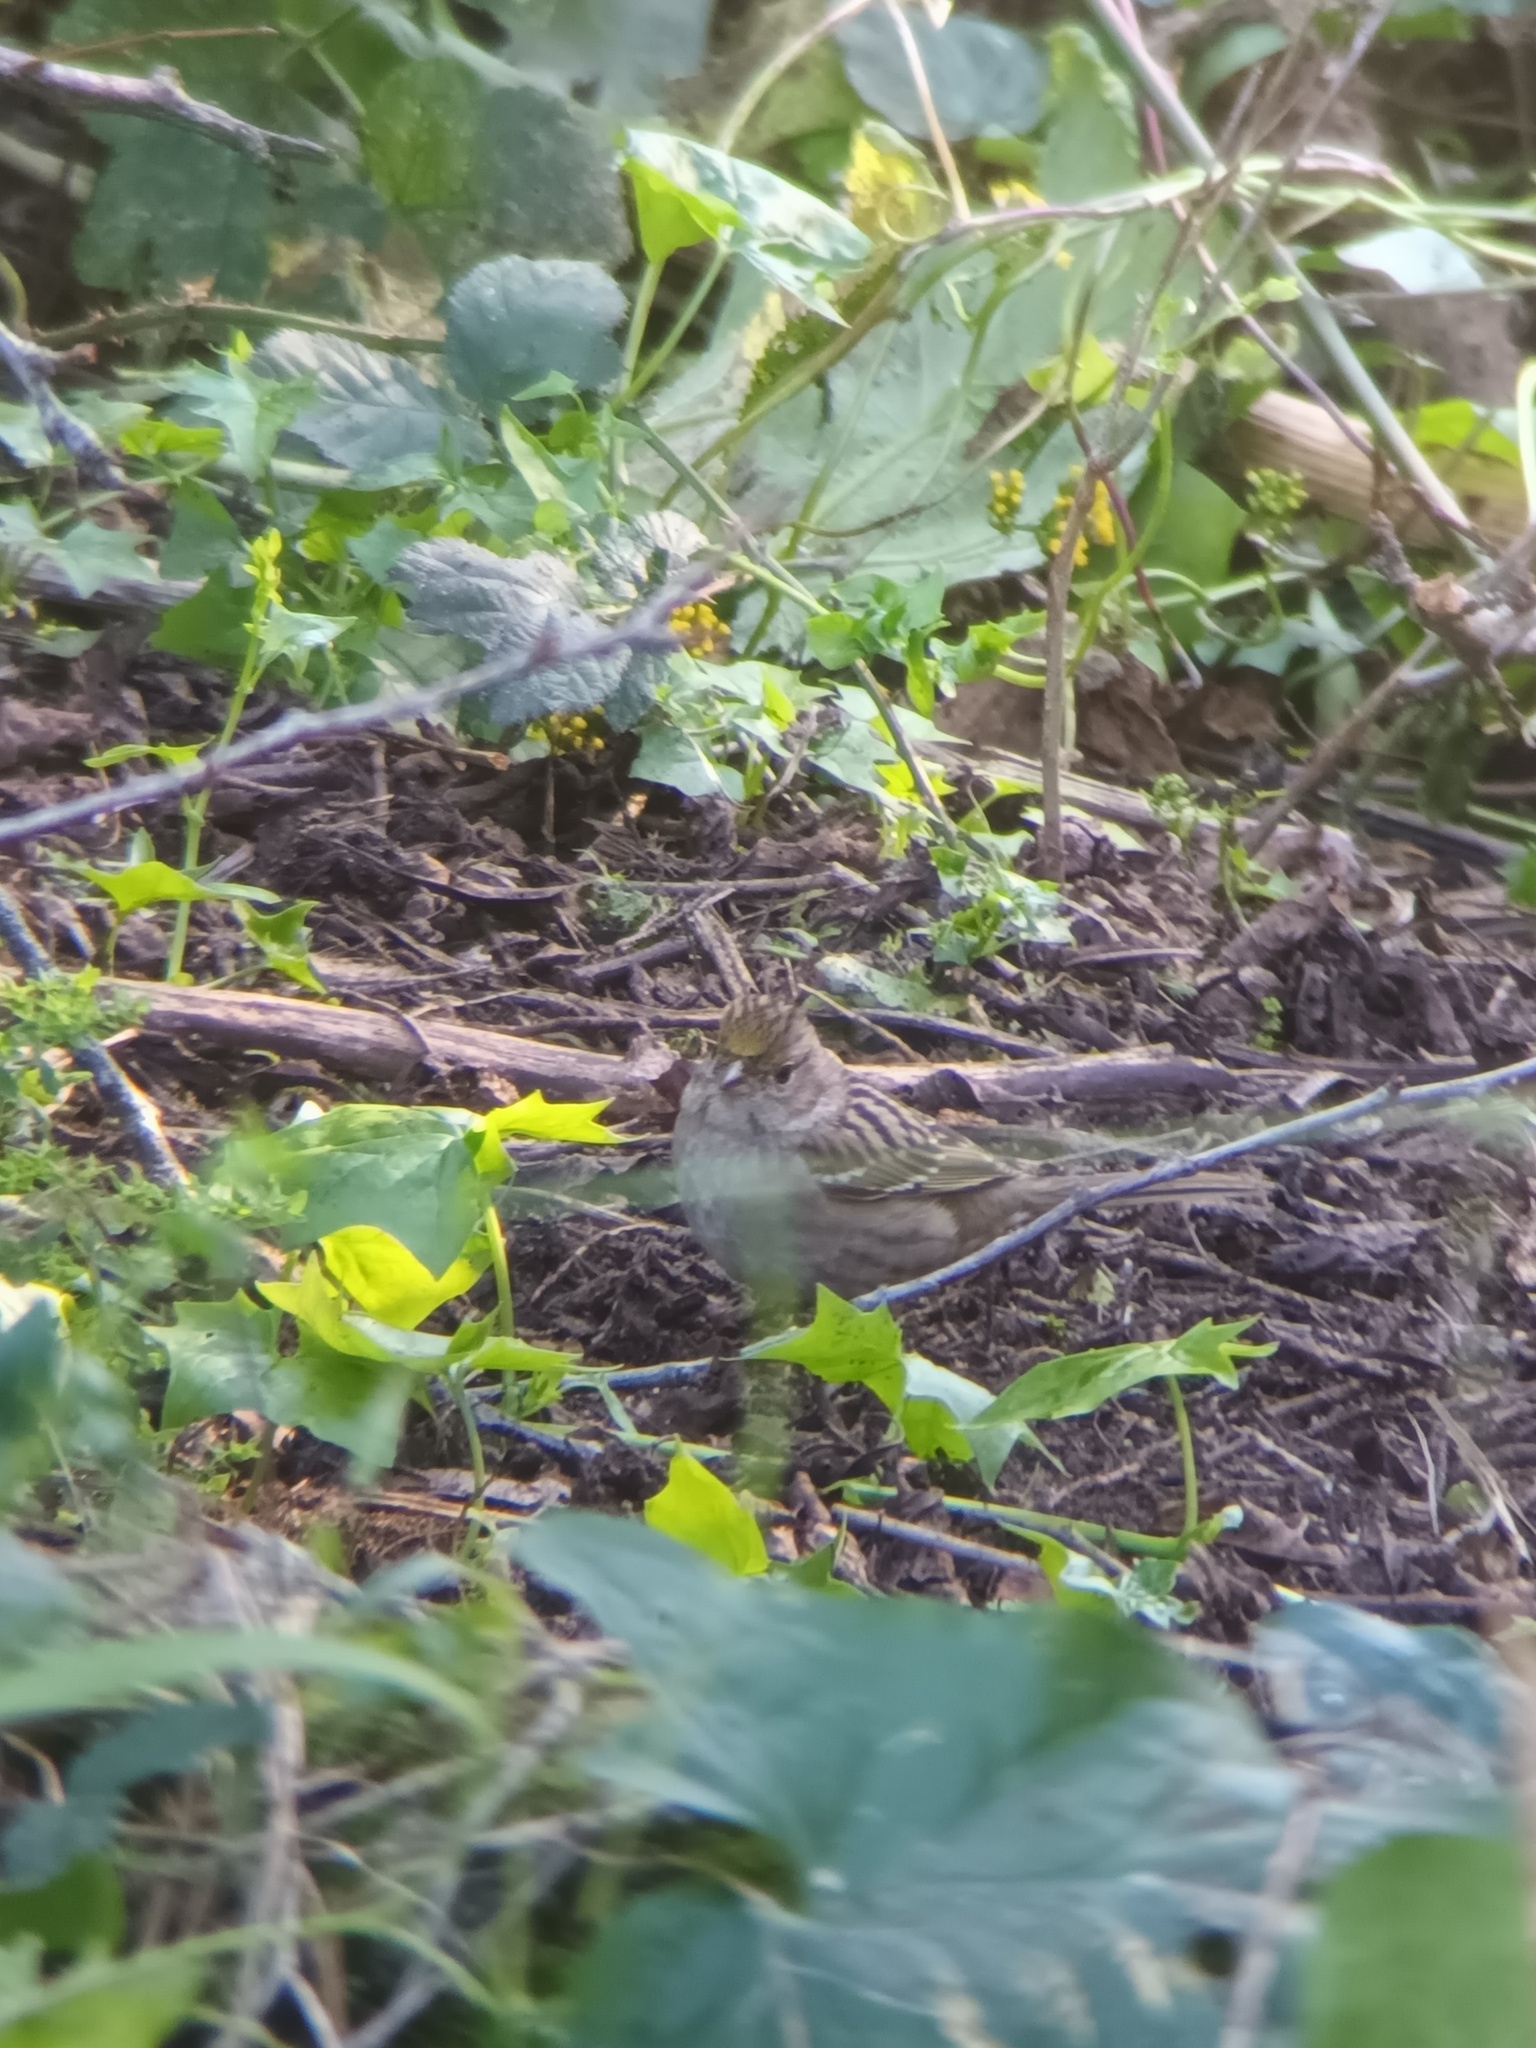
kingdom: Animalia
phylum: Chordata
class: Aves
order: Passeriformes
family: Passerellidae
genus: Zonotrichia
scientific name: Zonotrichia atricapilla
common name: Golden-crowned sparrow
